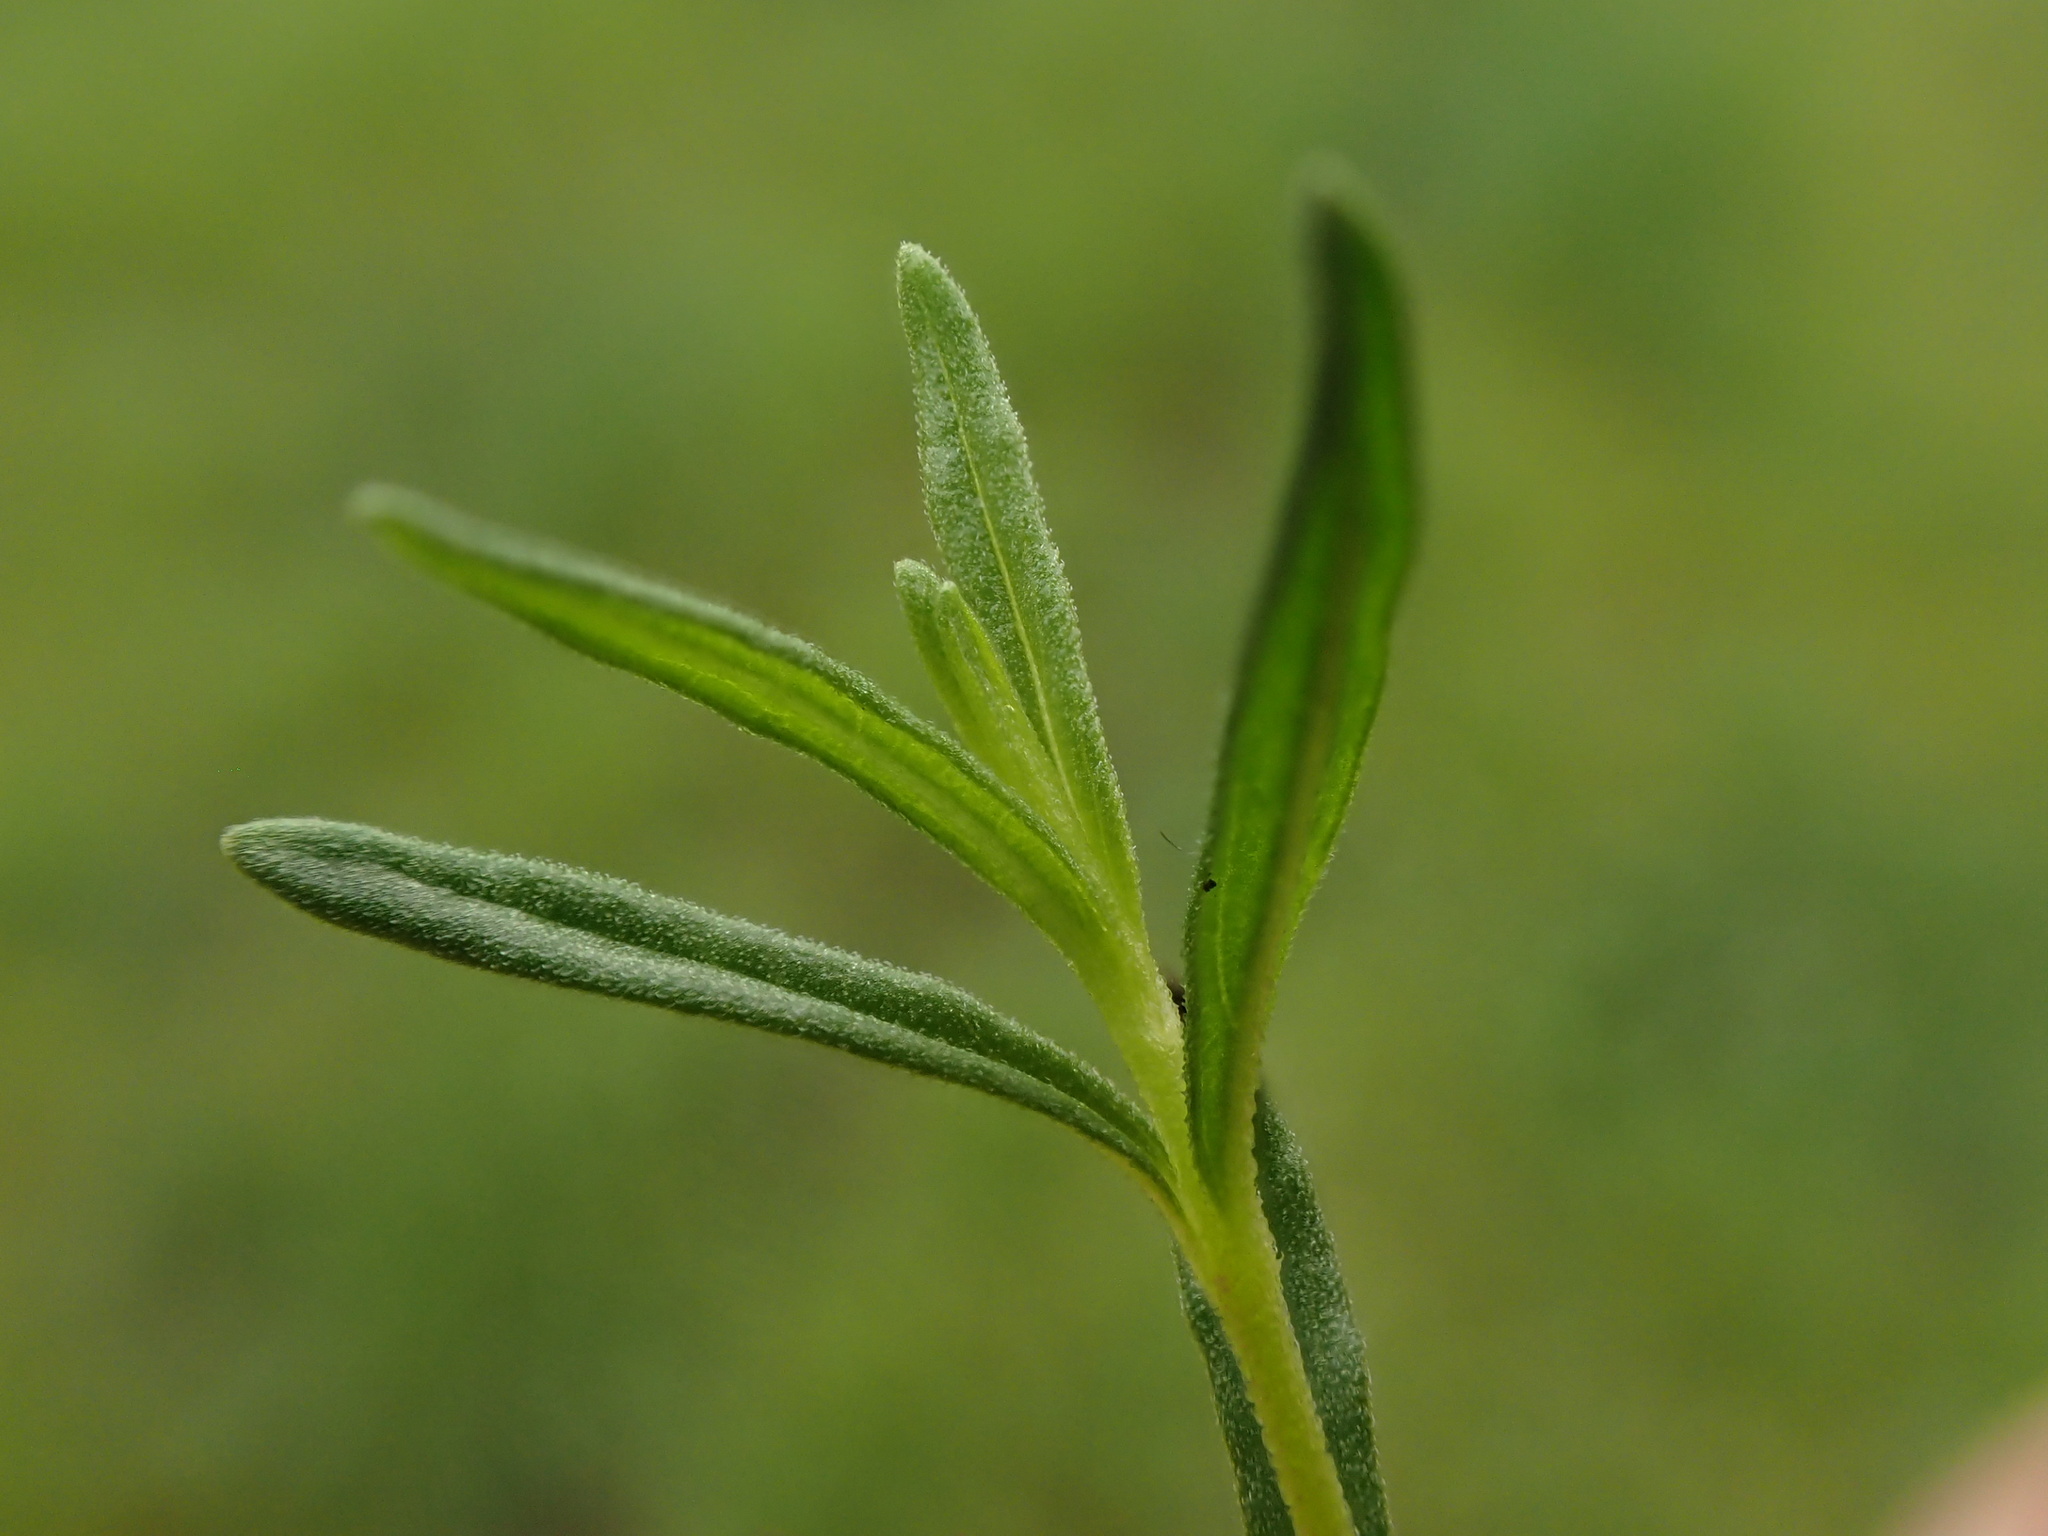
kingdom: Plantae
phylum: Tracheophyta
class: Magnoliopsida
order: Lamiales
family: Plantaginaceae
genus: Veronica
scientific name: Veronica satureiifolia
